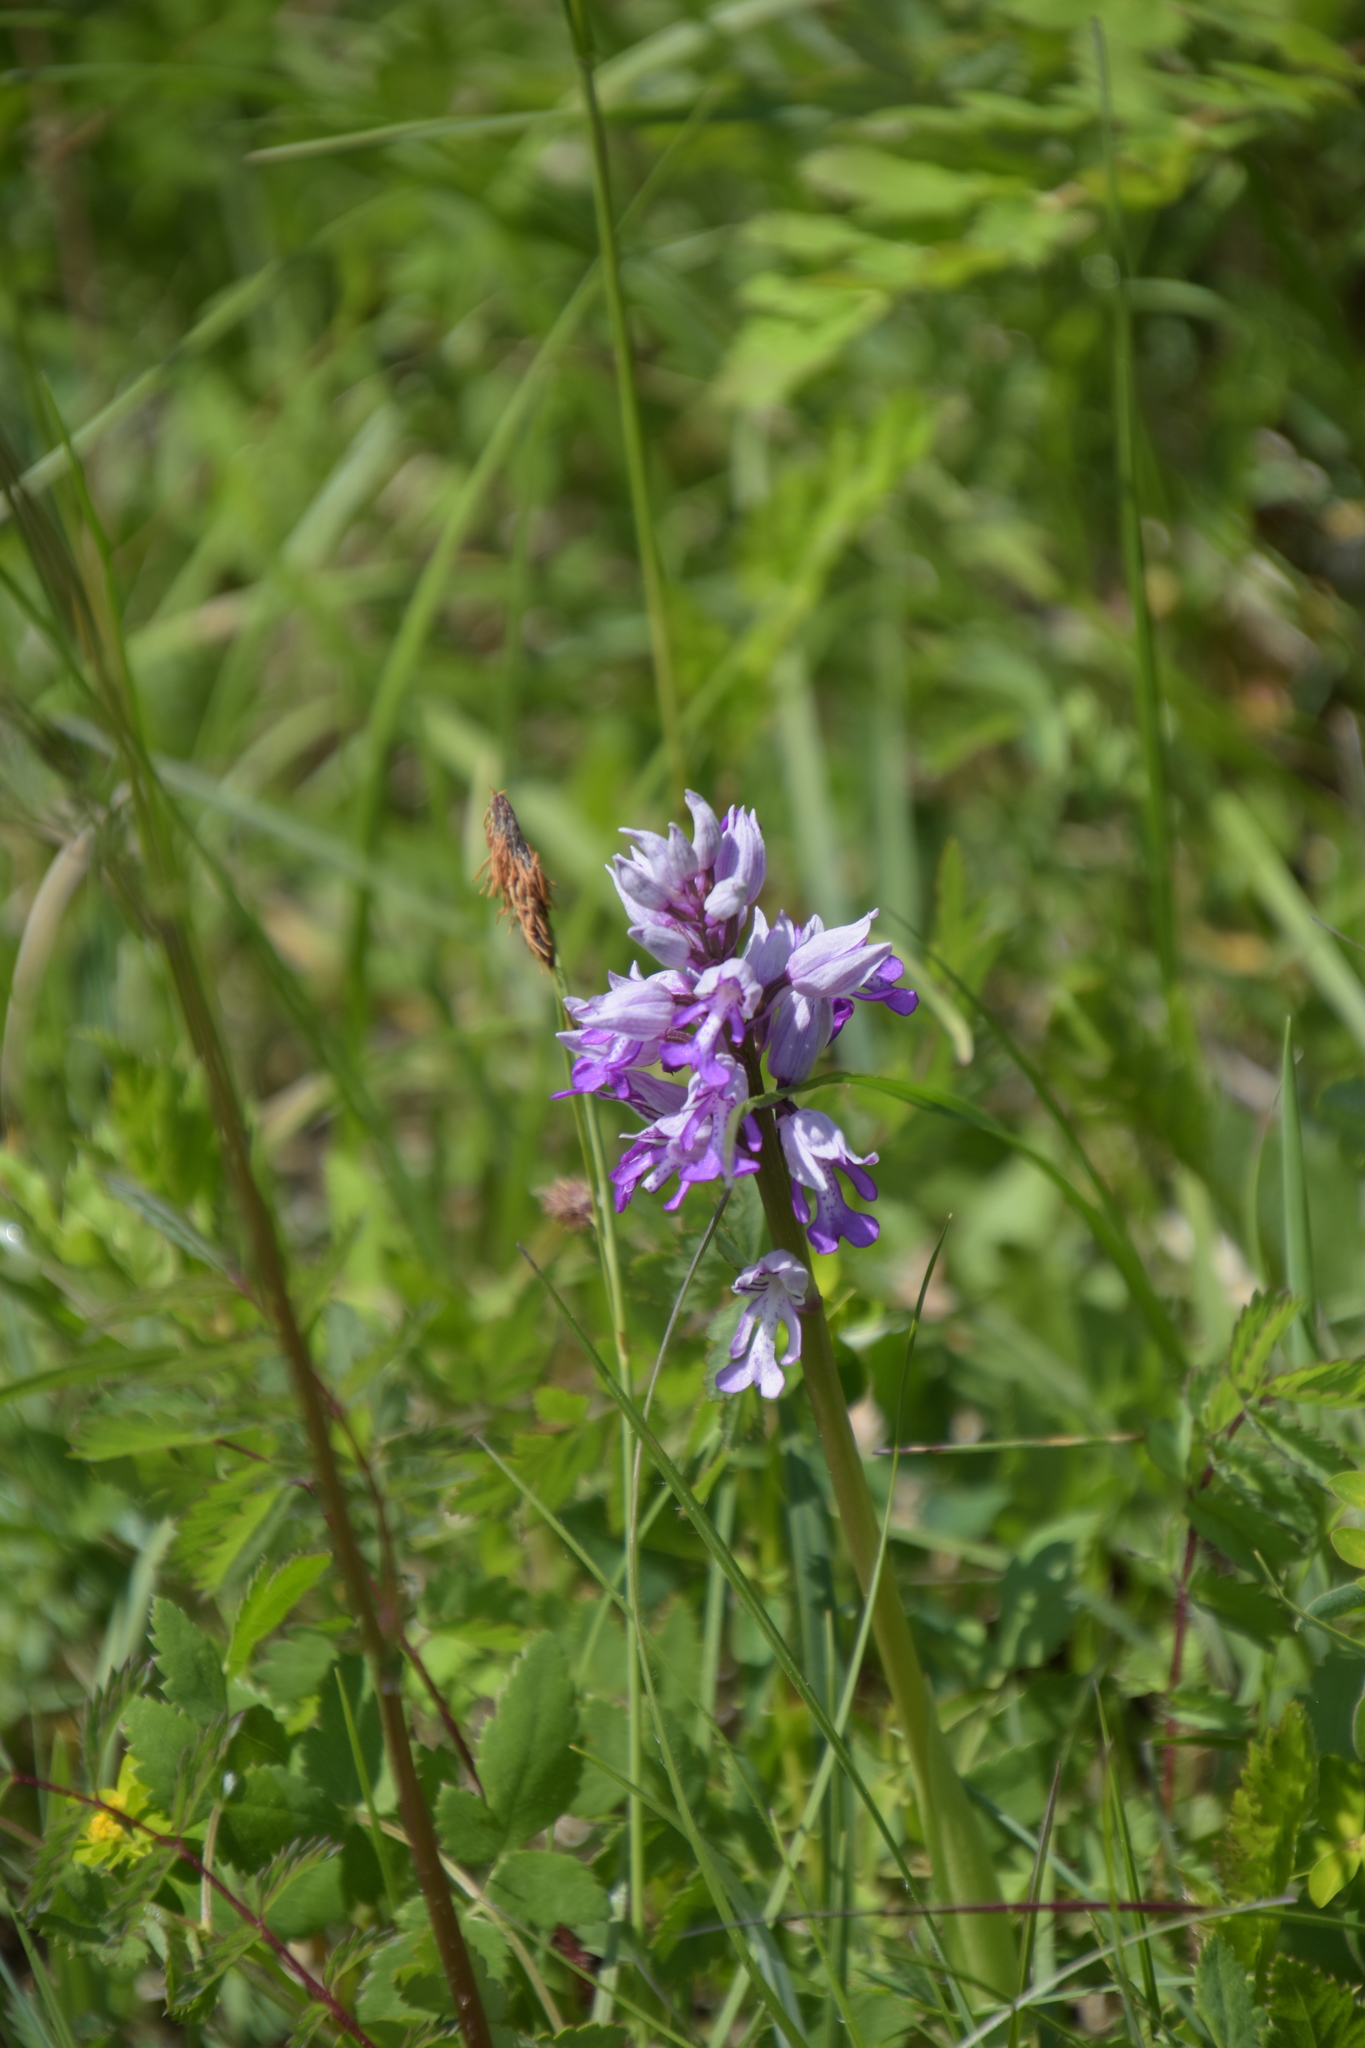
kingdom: Plantae
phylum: Tracheophyta
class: Liliopsida
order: Asparagales
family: Orchidaceae
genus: Orchis
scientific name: Orchis militaris
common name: Military orchid
